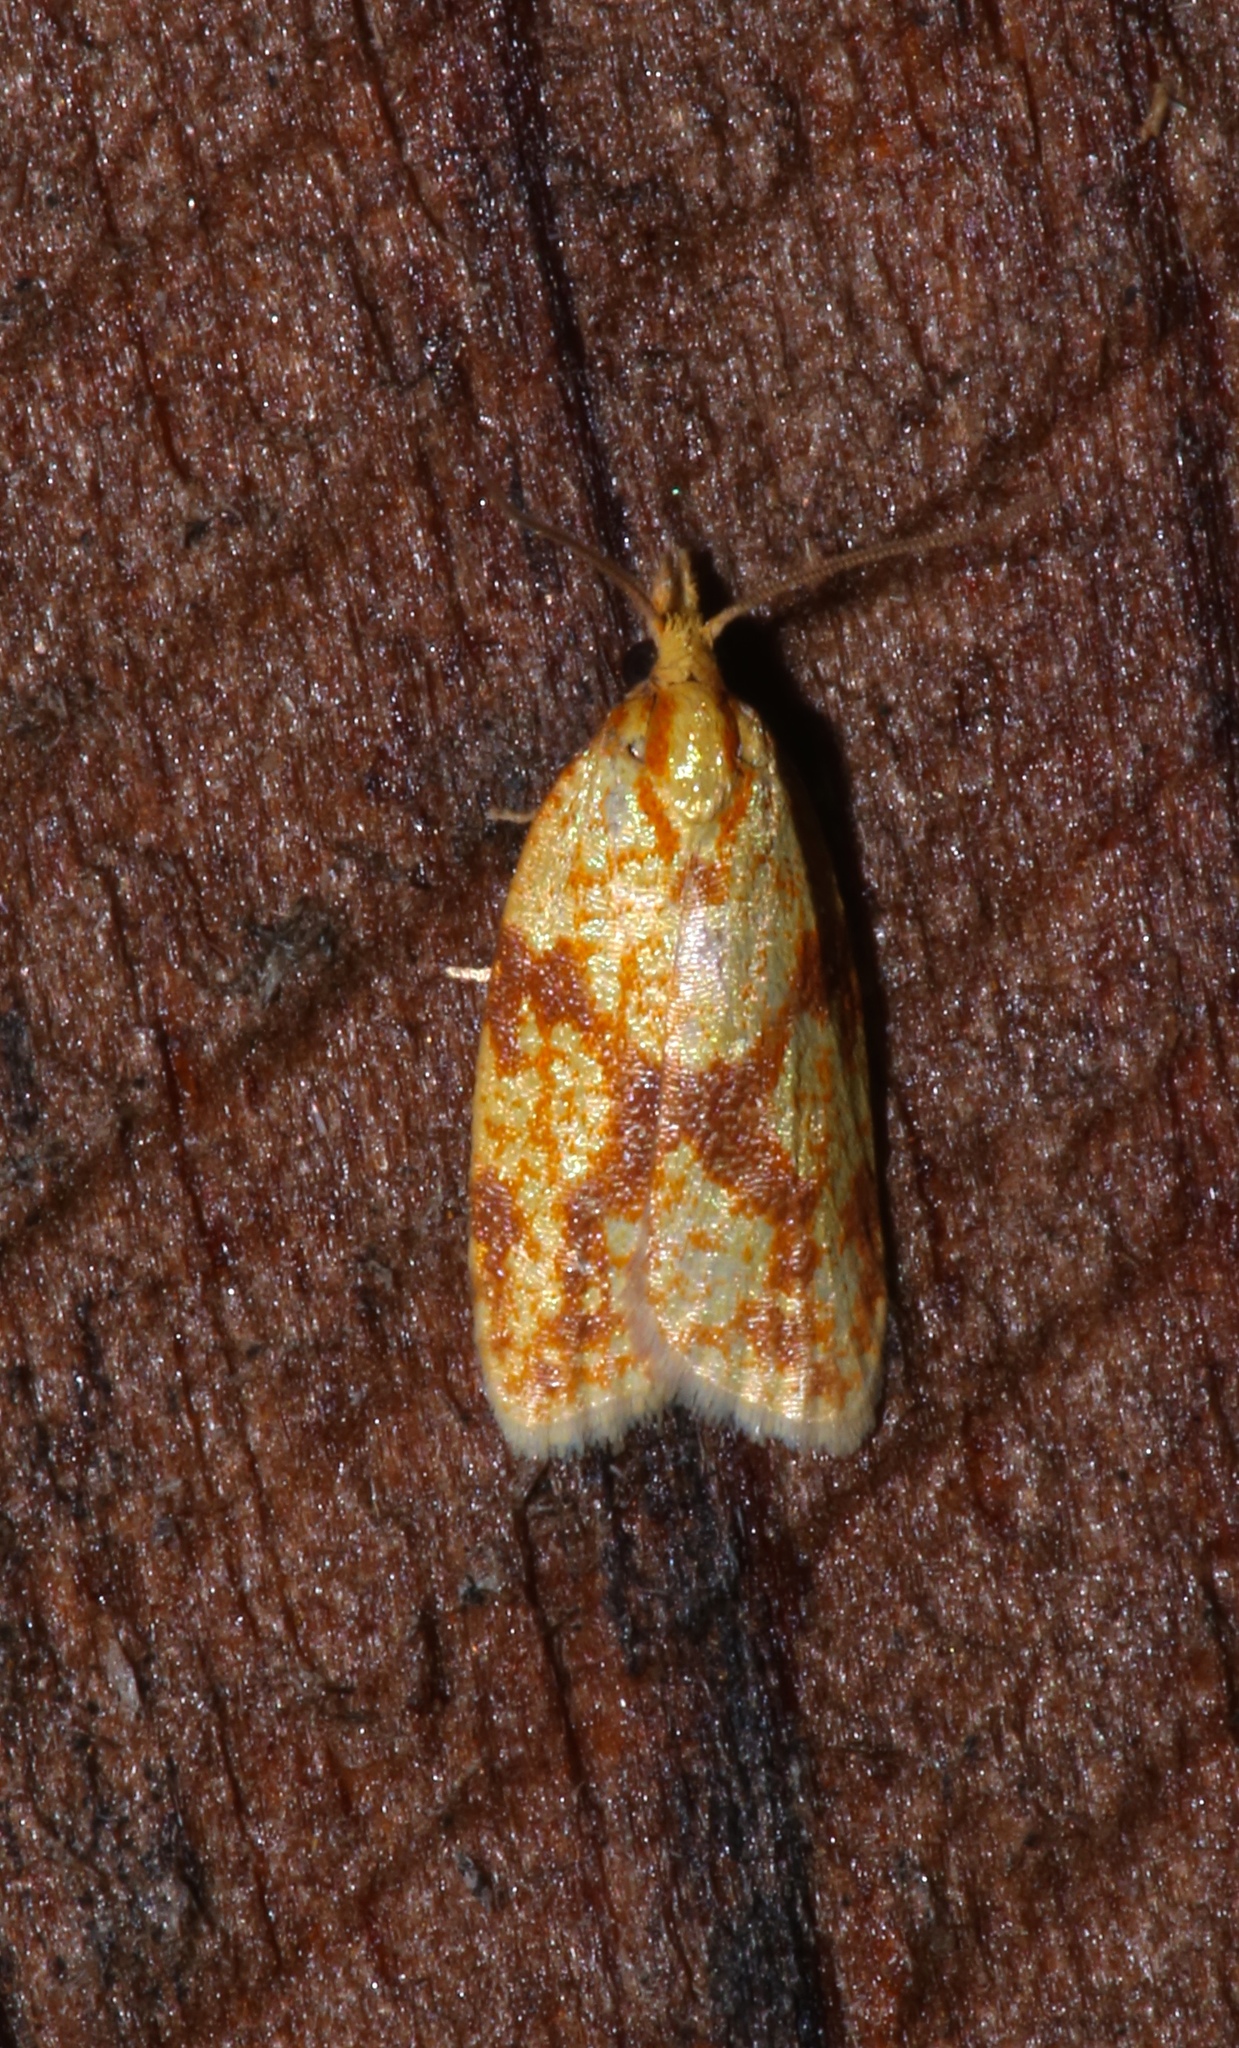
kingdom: Animalia
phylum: Arthropoda
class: Insecta
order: Lepidoptera
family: Tortricidae
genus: Sparganothis
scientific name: Sparganothis sulfureana
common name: Sparganothis fruitworm moth
